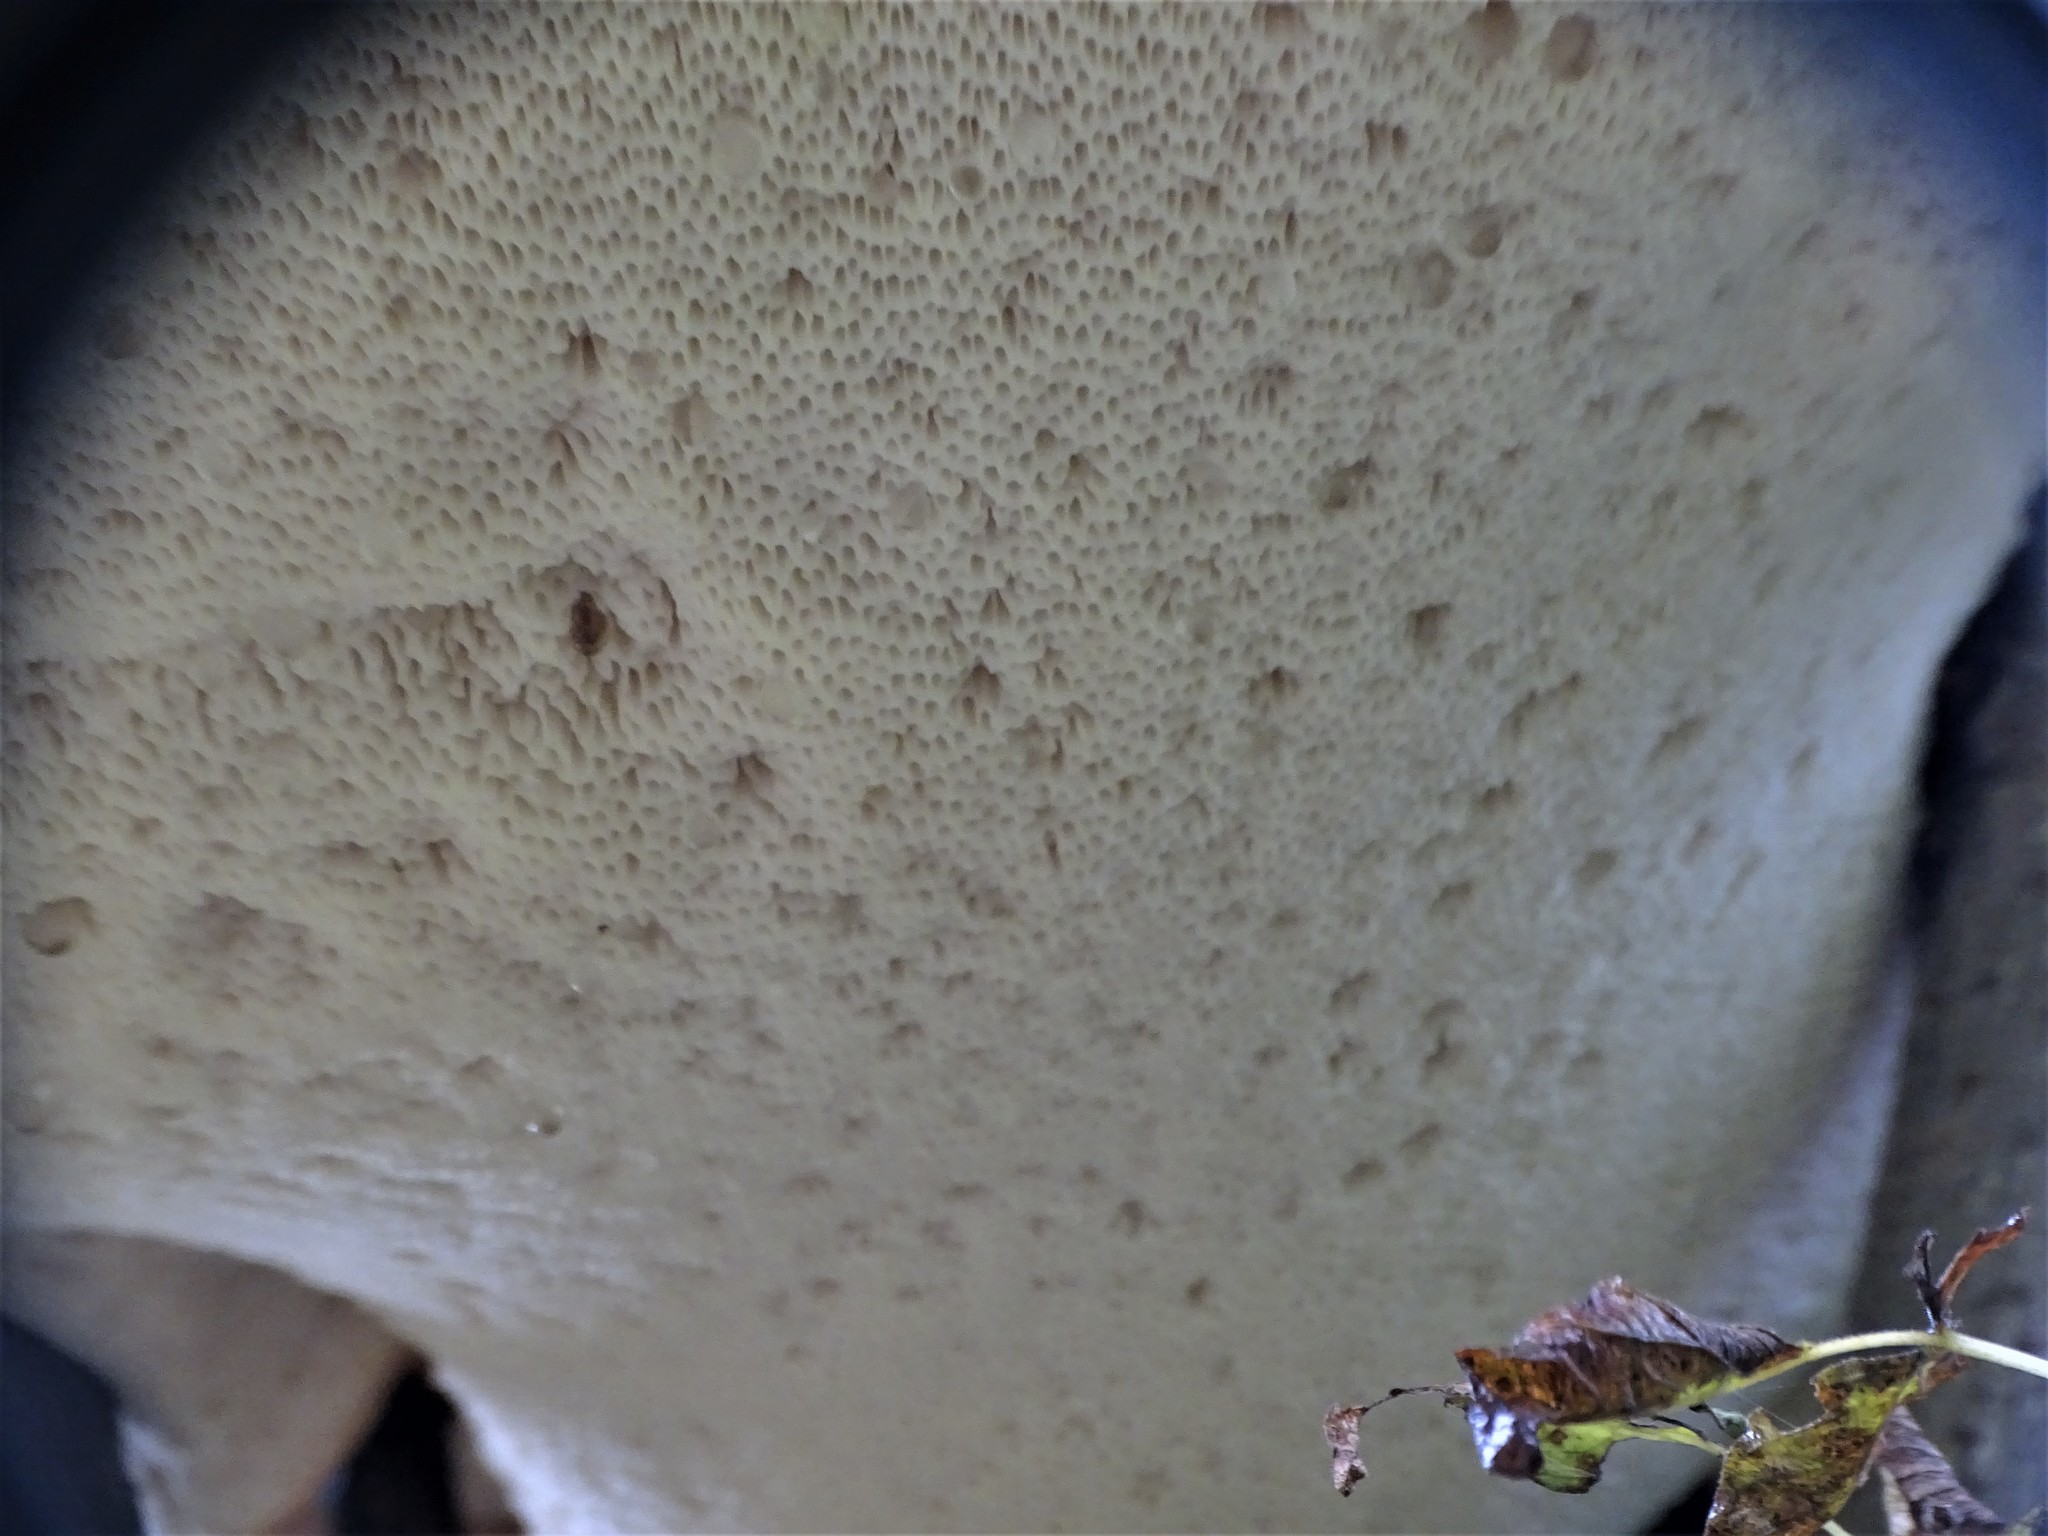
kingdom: Fungi
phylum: Basidiomycota
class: Agaricomycetes
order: Polyporales
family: Polyporaceae
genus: Cerioporus
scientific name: Cerioporus squamosus
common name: Dryad's saddle
